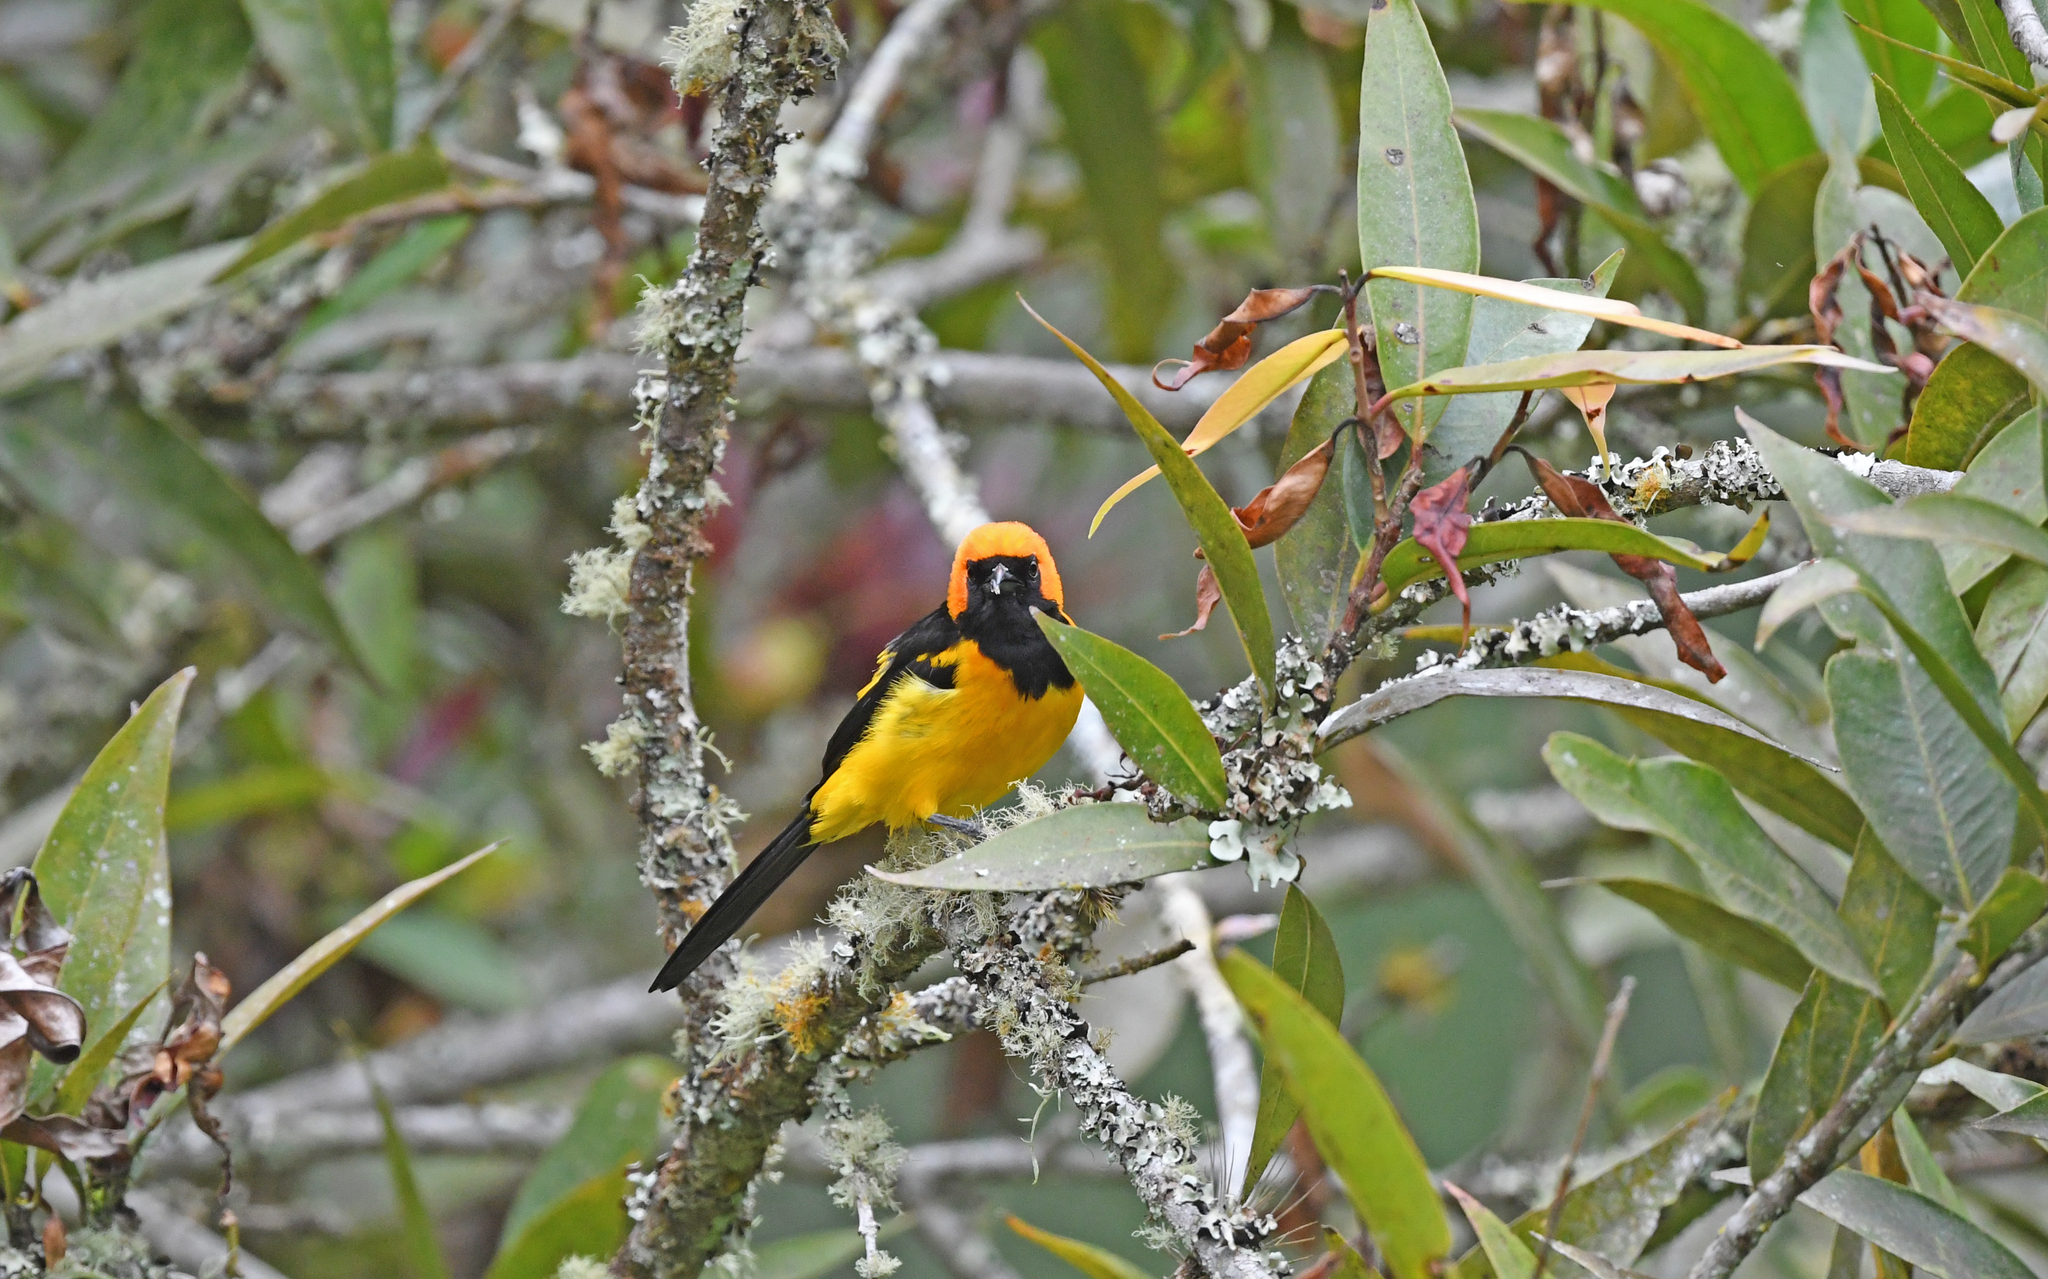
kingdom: Animalia
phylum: Chordata
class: Aves
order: Passeriformes
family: Icteridae
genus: Icterus
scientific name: Icterus auricapillus
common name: Orange-crowned oriole
